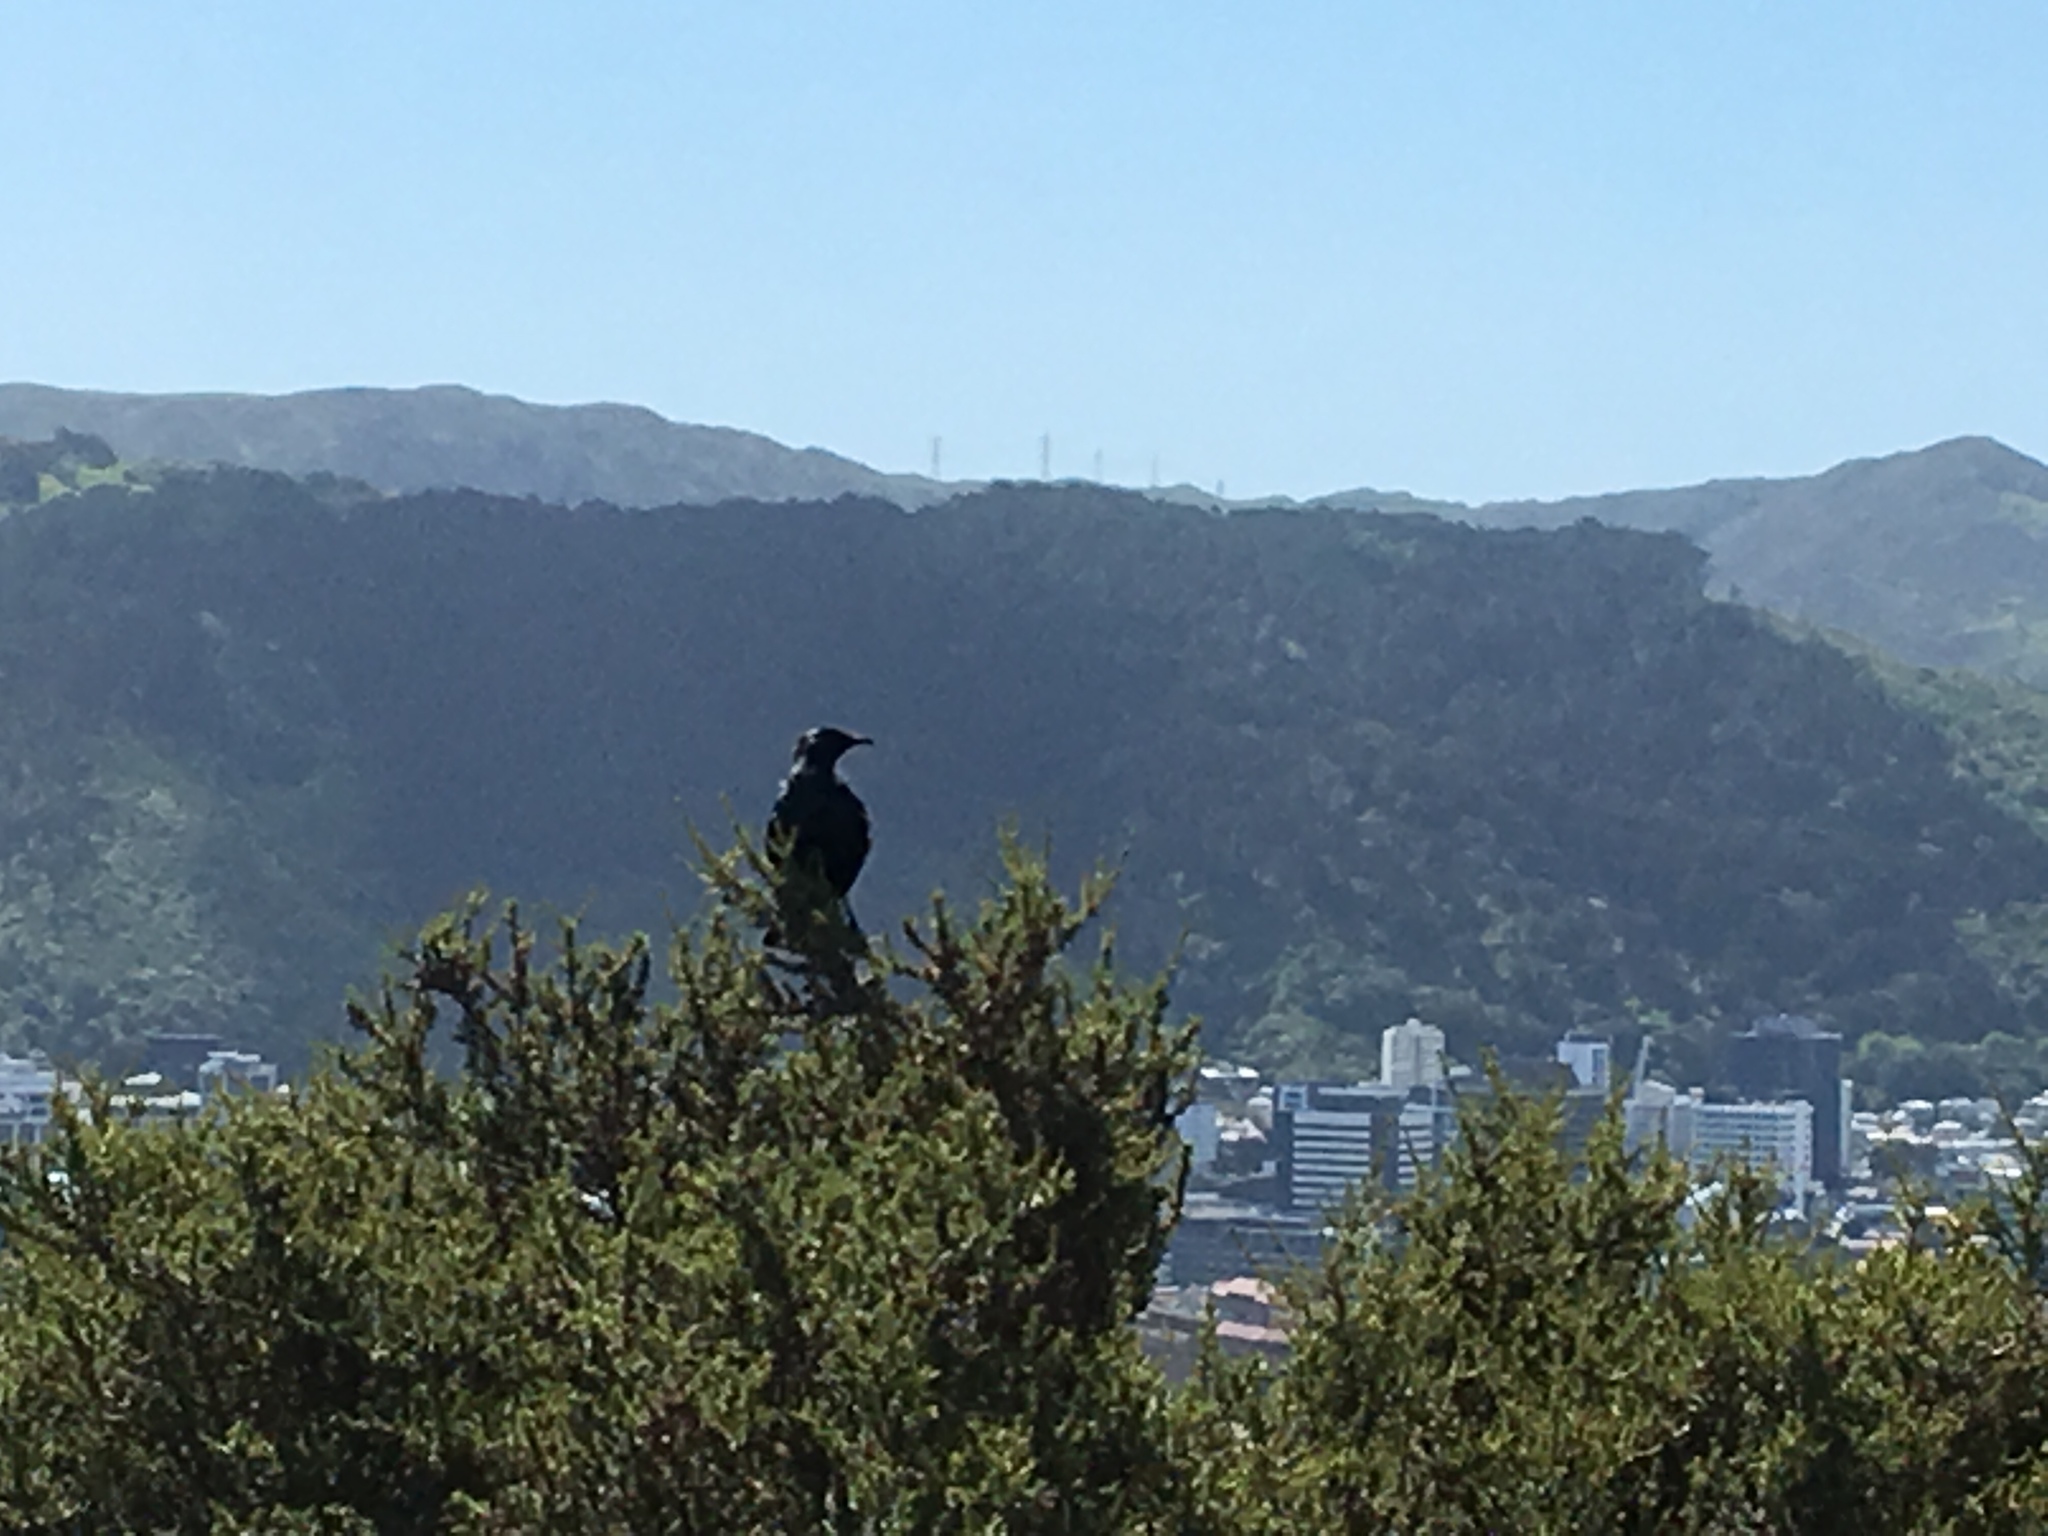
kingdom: Animalia
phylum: Chordata
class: Aves
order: Passeriformes
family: Meliphagidae
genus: Prosthemadera
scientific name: Prosthemadera novaeseelandiae
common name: Tui
